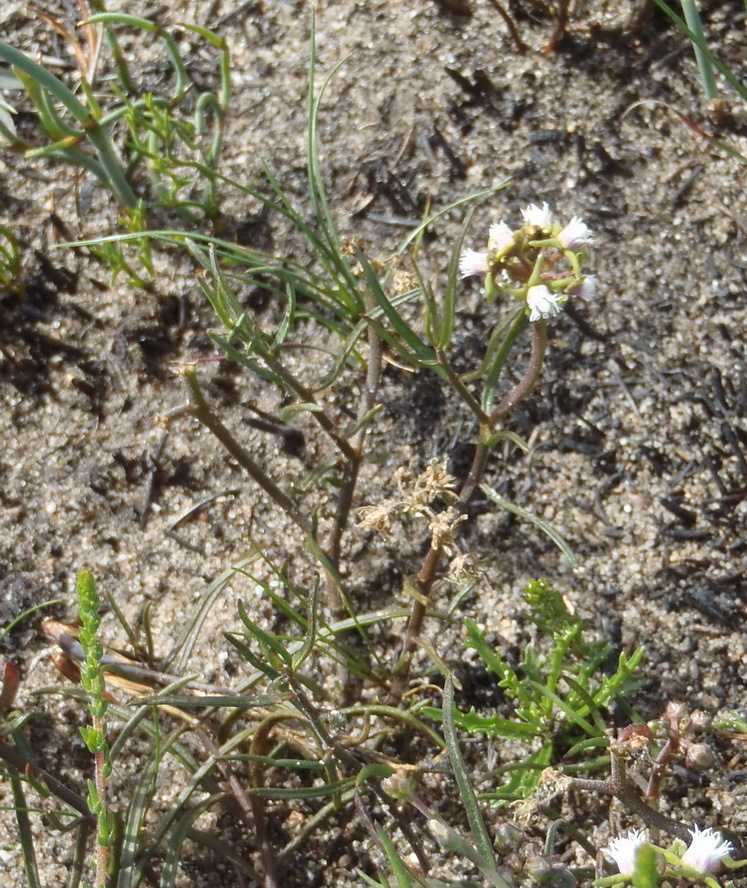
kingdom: Plantae
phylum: Tracheophyta
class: Magnoliopsida
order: Gentianales
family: Apocynaceae
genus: Eustegia
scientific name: Eustegia minuta
